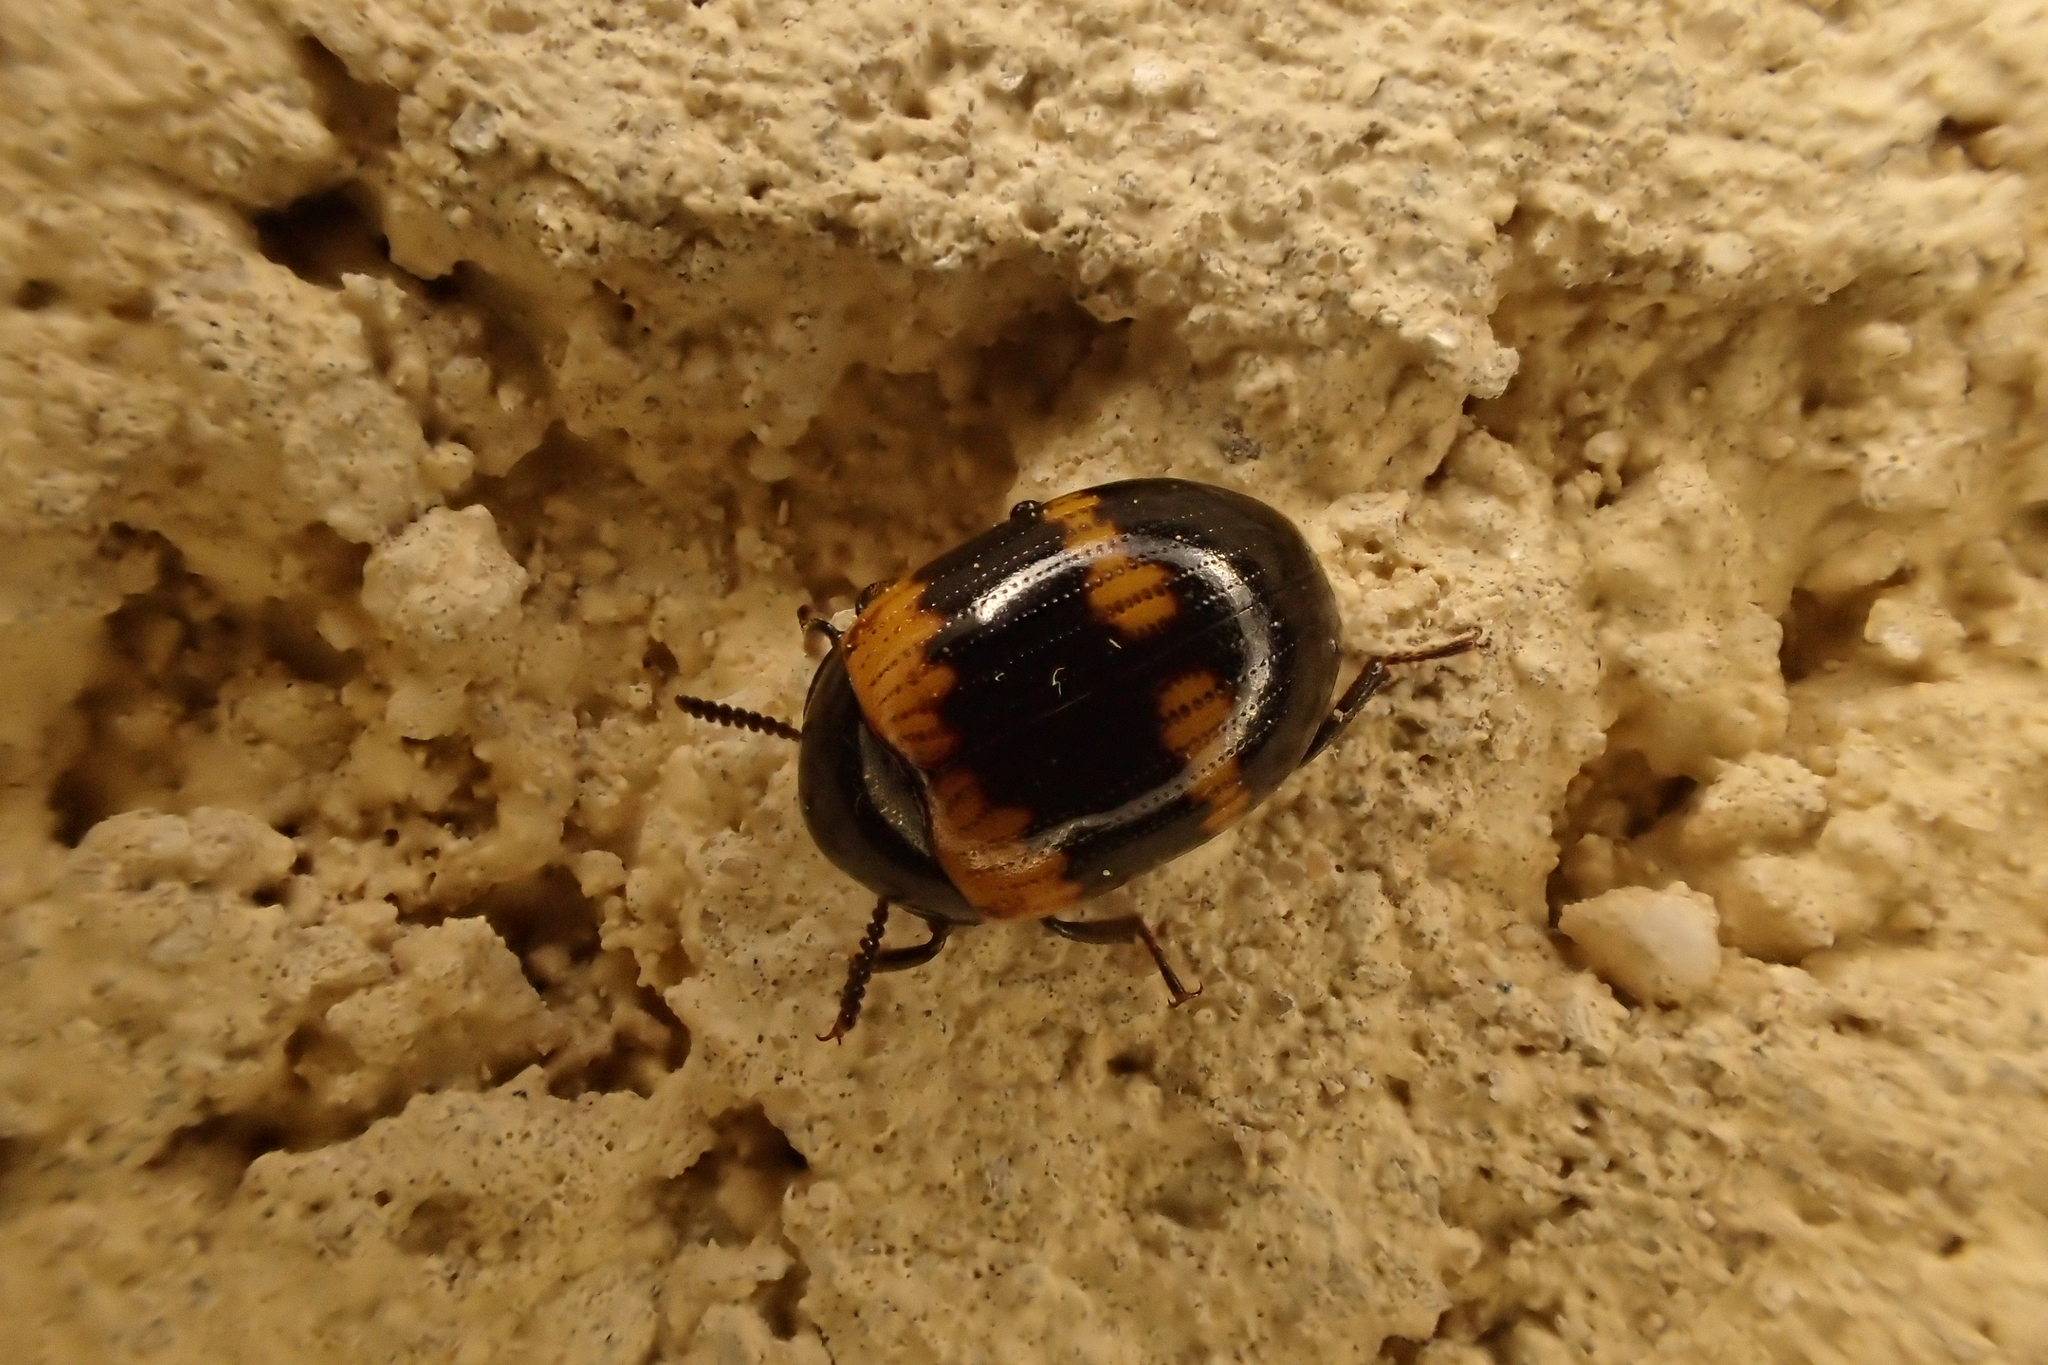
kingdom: Animalia
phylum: Arthropoda
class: Insecta
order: Coleoptera
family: Tenebrionidae
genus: Diaperis
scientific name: Diaperis boleti
